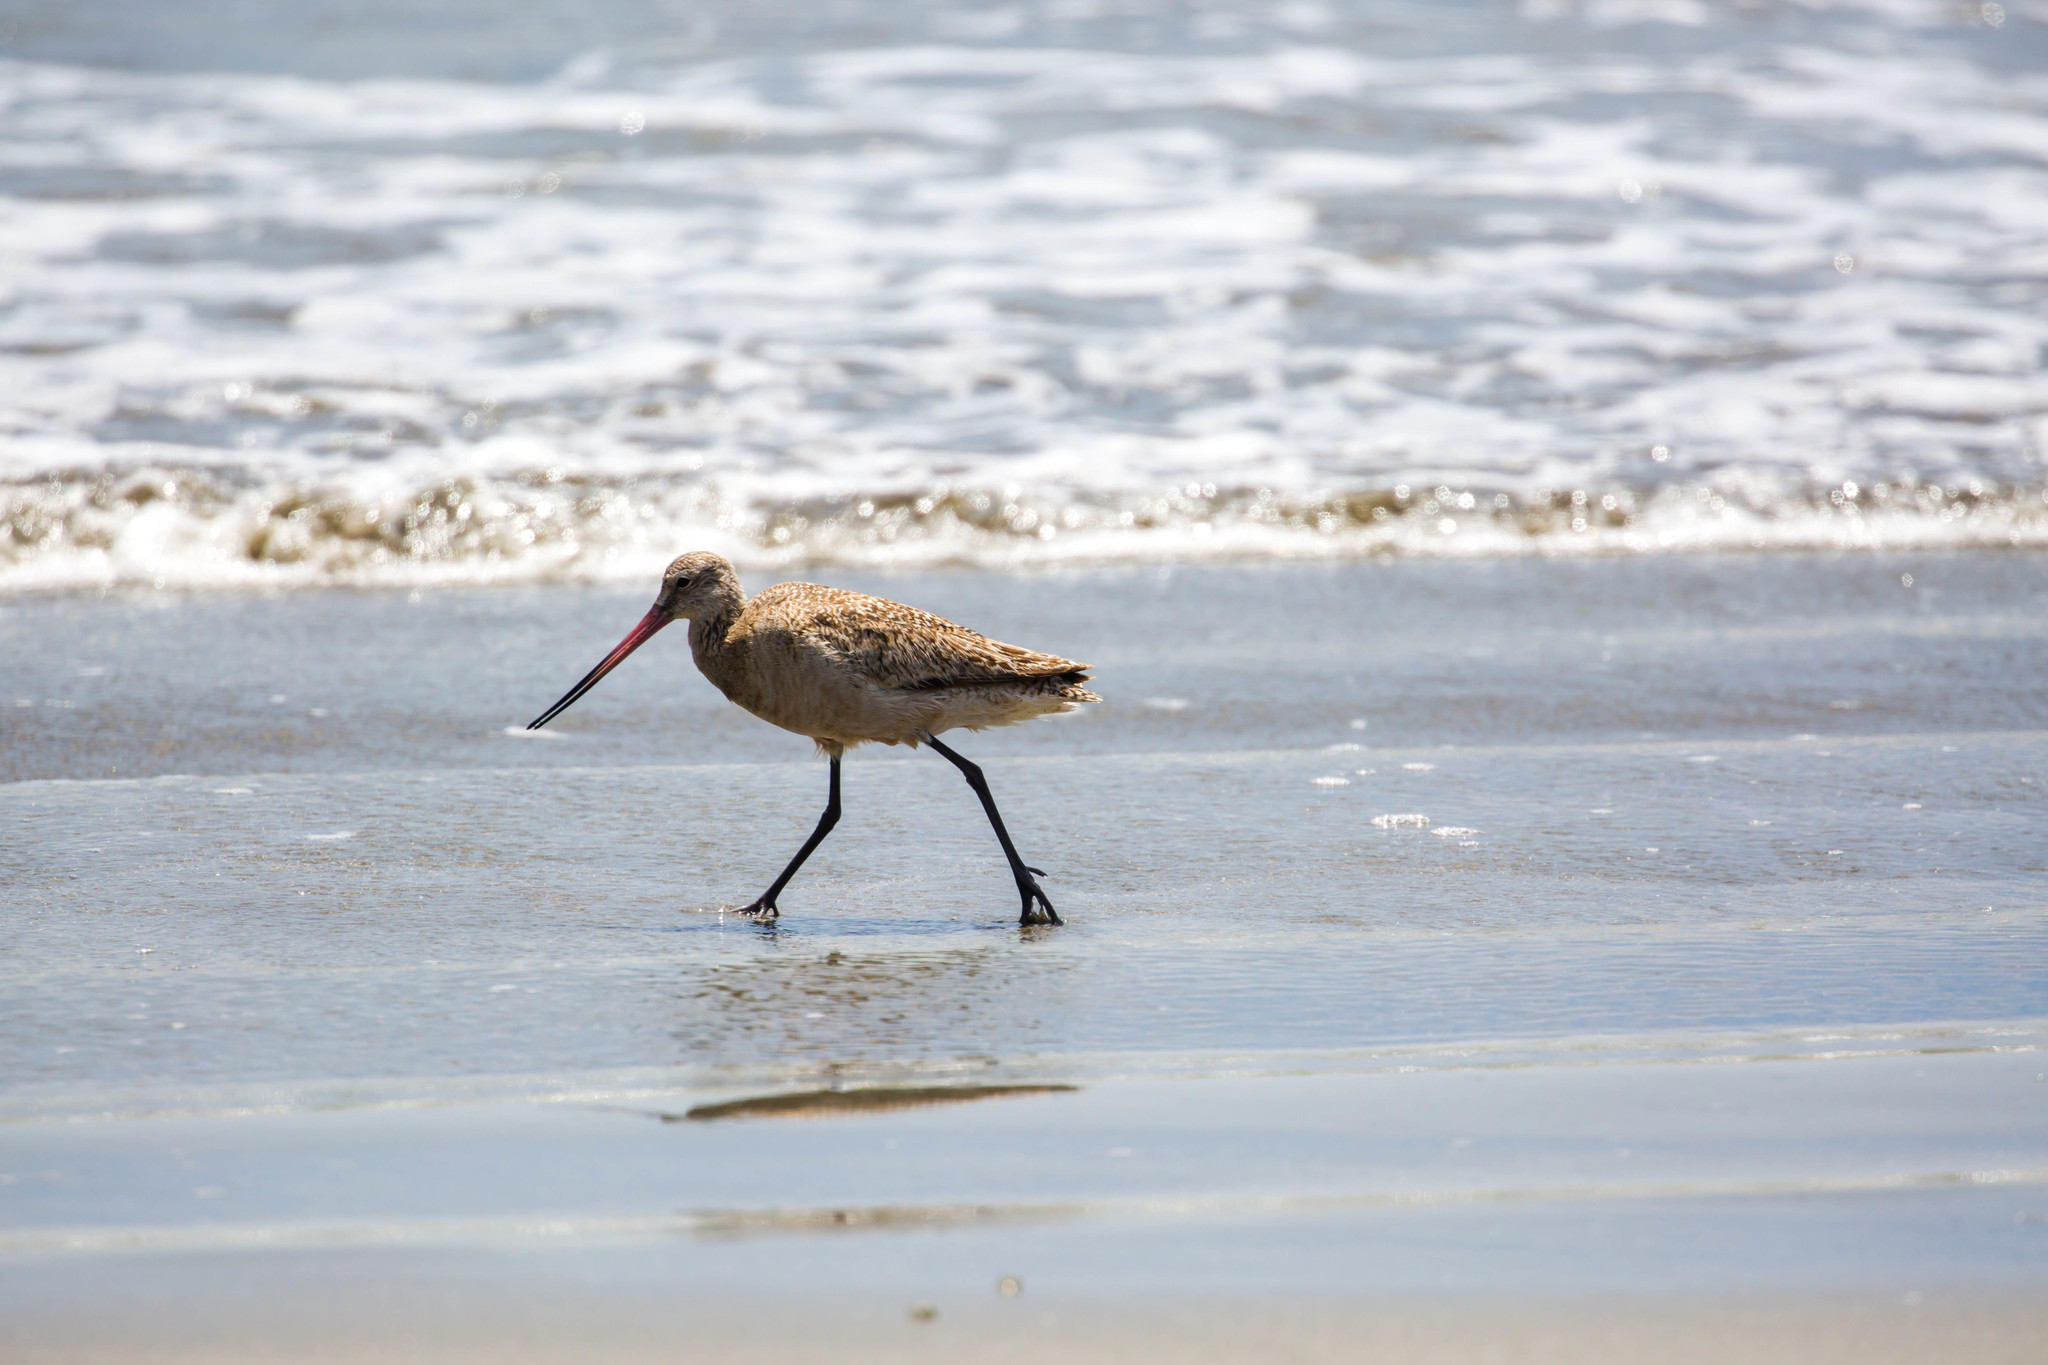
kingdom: Animalia
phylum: Chordata
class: Aves
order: Charadriiformes
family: Scolopacidae
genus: Limosa
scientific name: Limosa fedoa
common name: Marbled godwit
